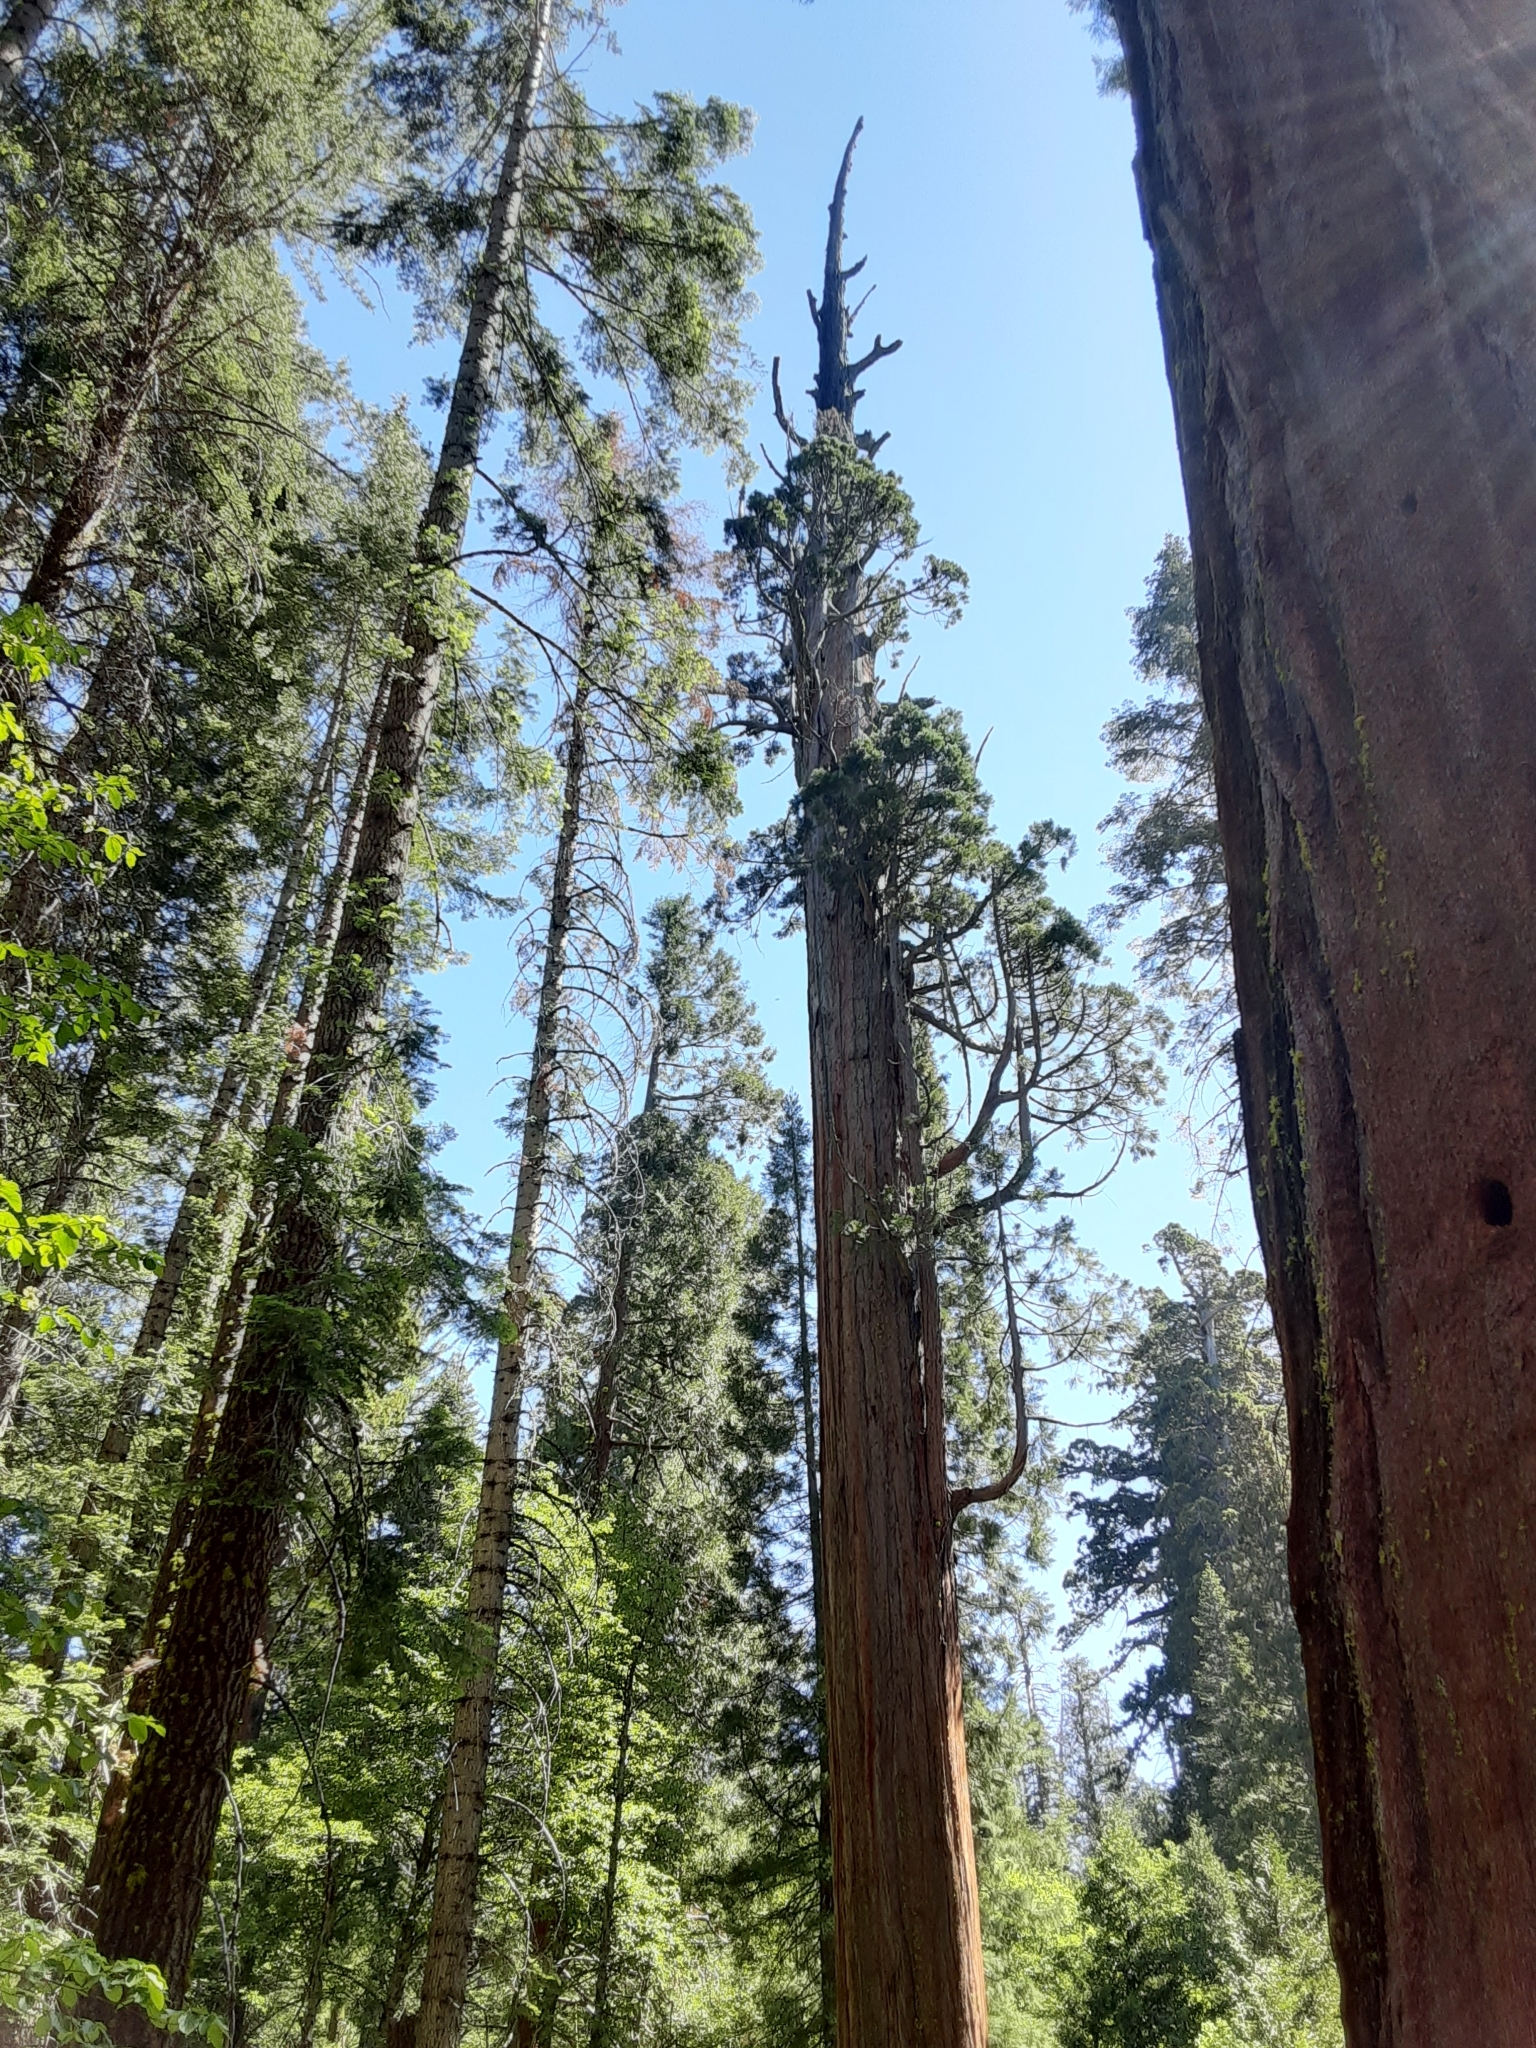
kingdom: Plantae
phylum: Tracheophyta
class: Pinopsida
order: Pinales
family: Cupressaceae
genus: Sequoiadendron
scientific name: Sequoiadendron giganteum
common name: Wellingtonia
